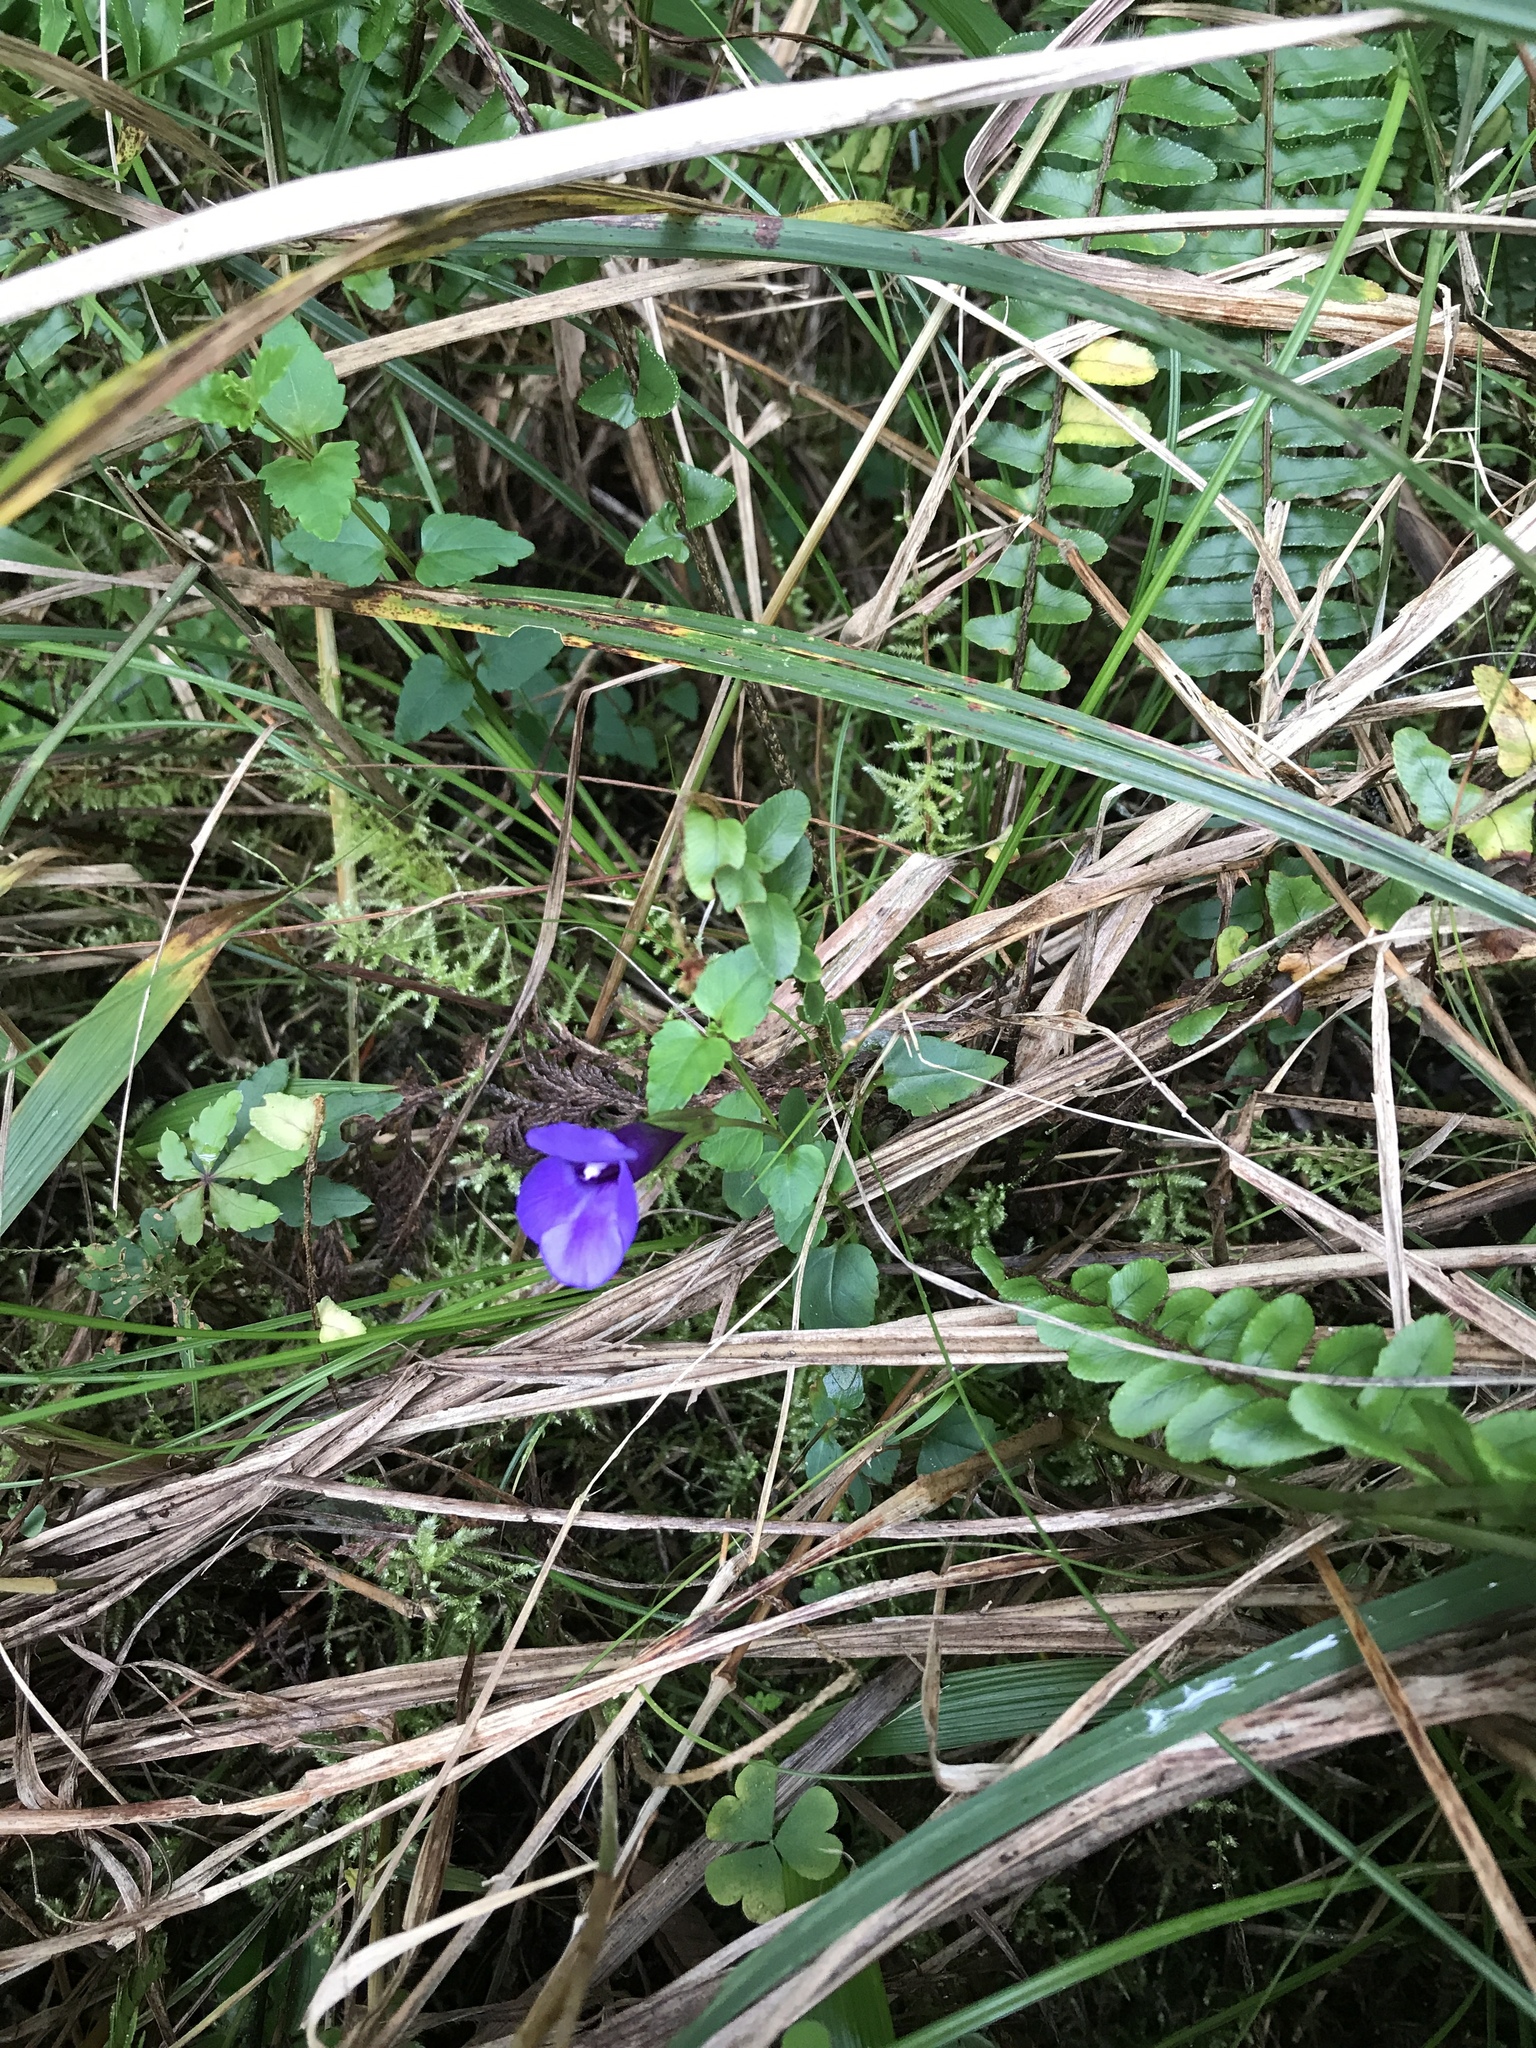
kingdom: Plantae
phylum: Tracheophyta
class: Magnoliopsida
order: Lamiales
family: Linderniaceae
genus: Torenia
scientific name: Torenia concolor
